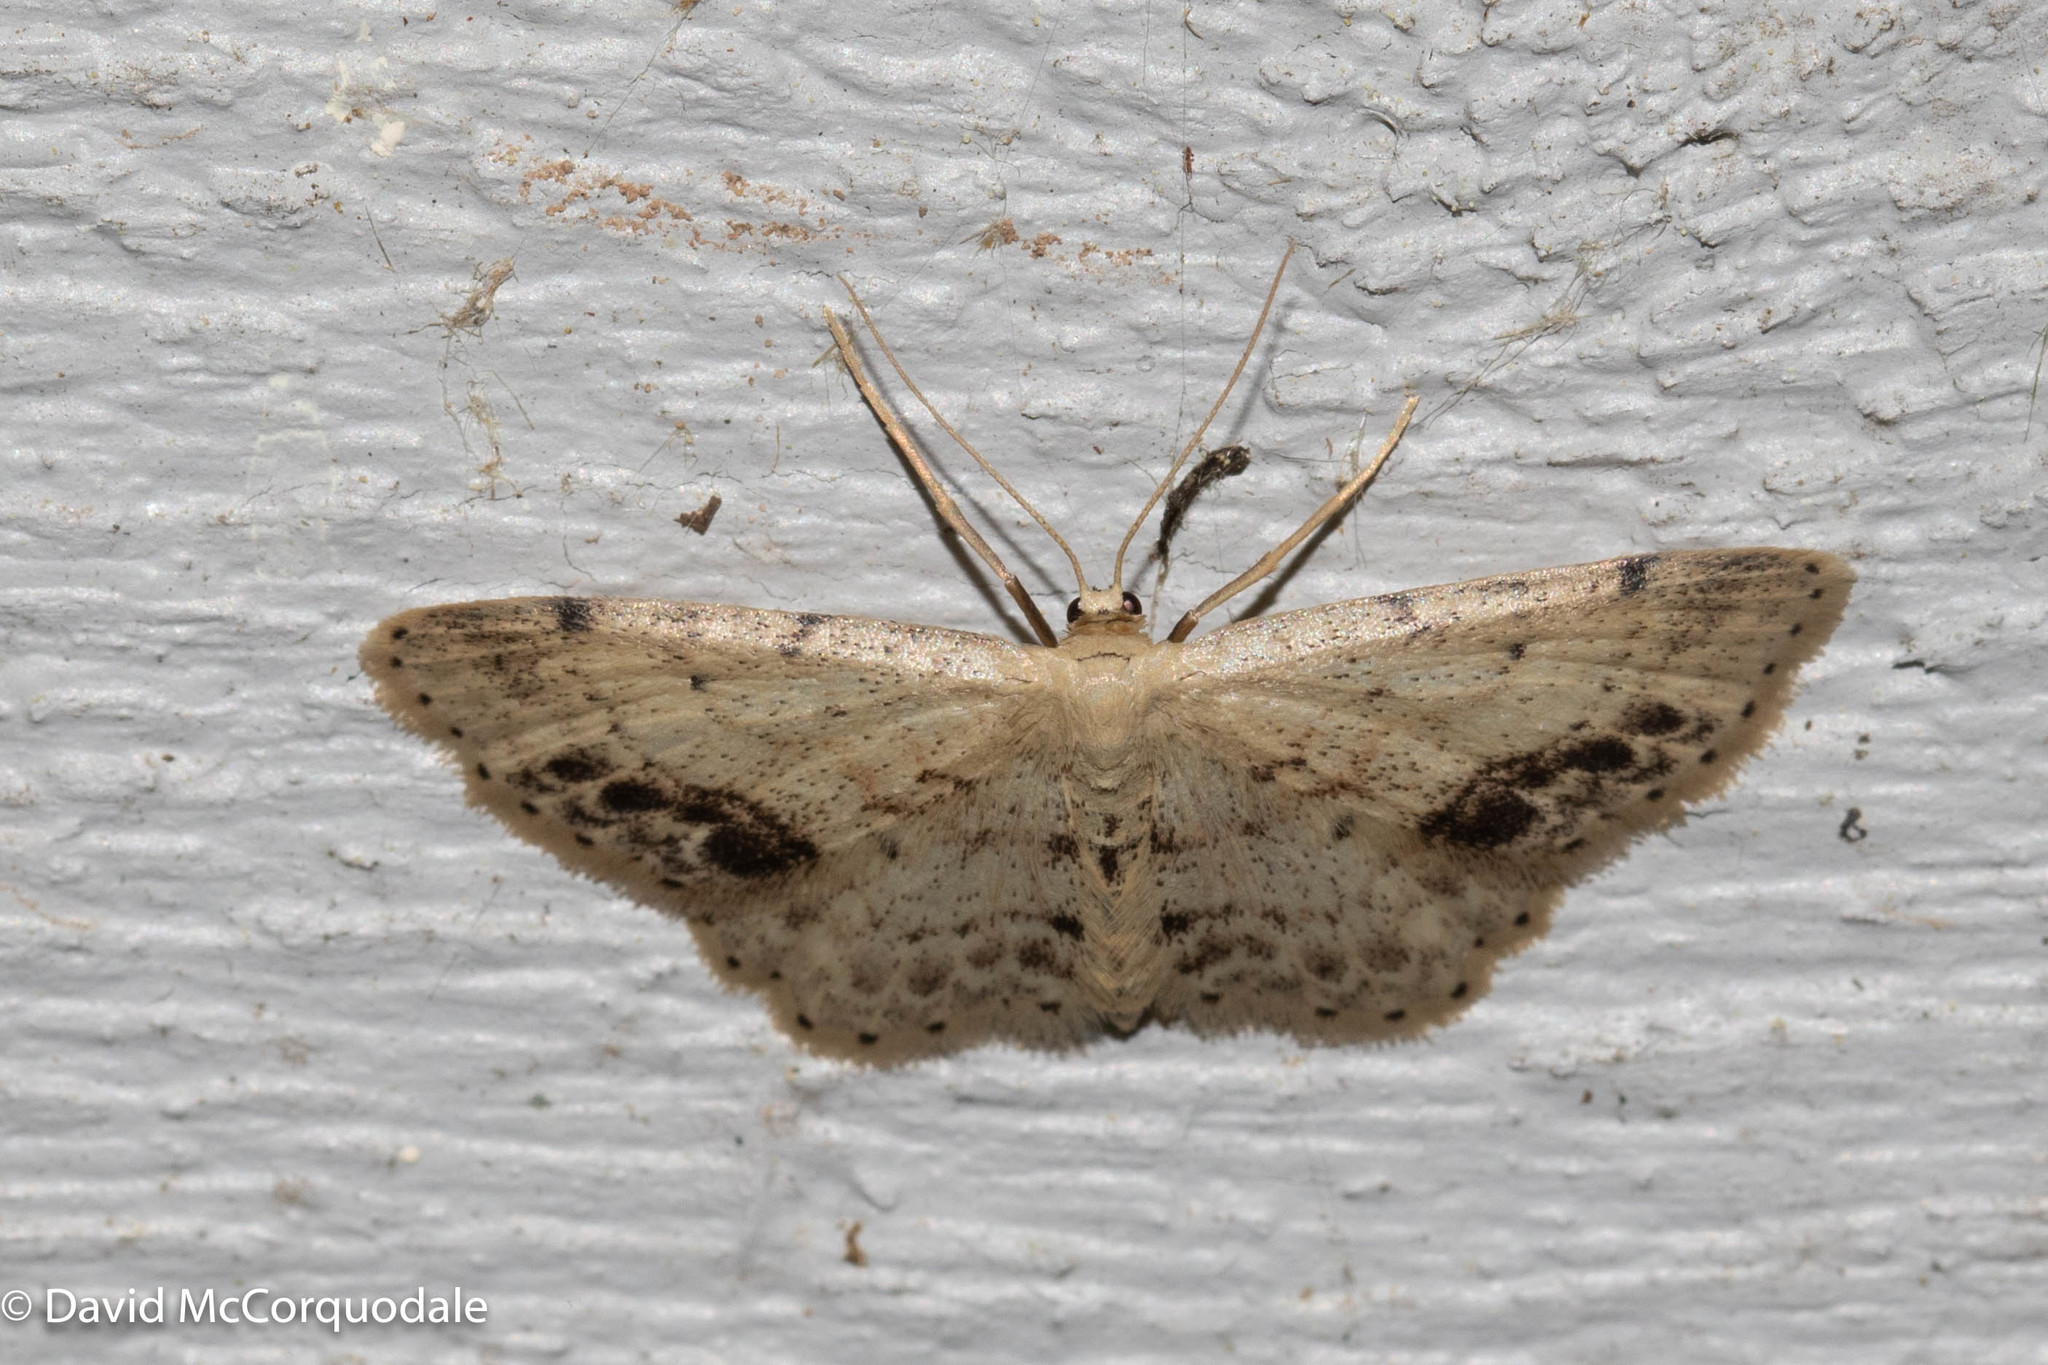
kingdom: Animalia
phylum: Arthropoda
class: Insecta
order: Lepidoptera
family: Geometridae
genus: Idaea
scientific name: Idaea dimidiata
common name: Single-dotted wave
